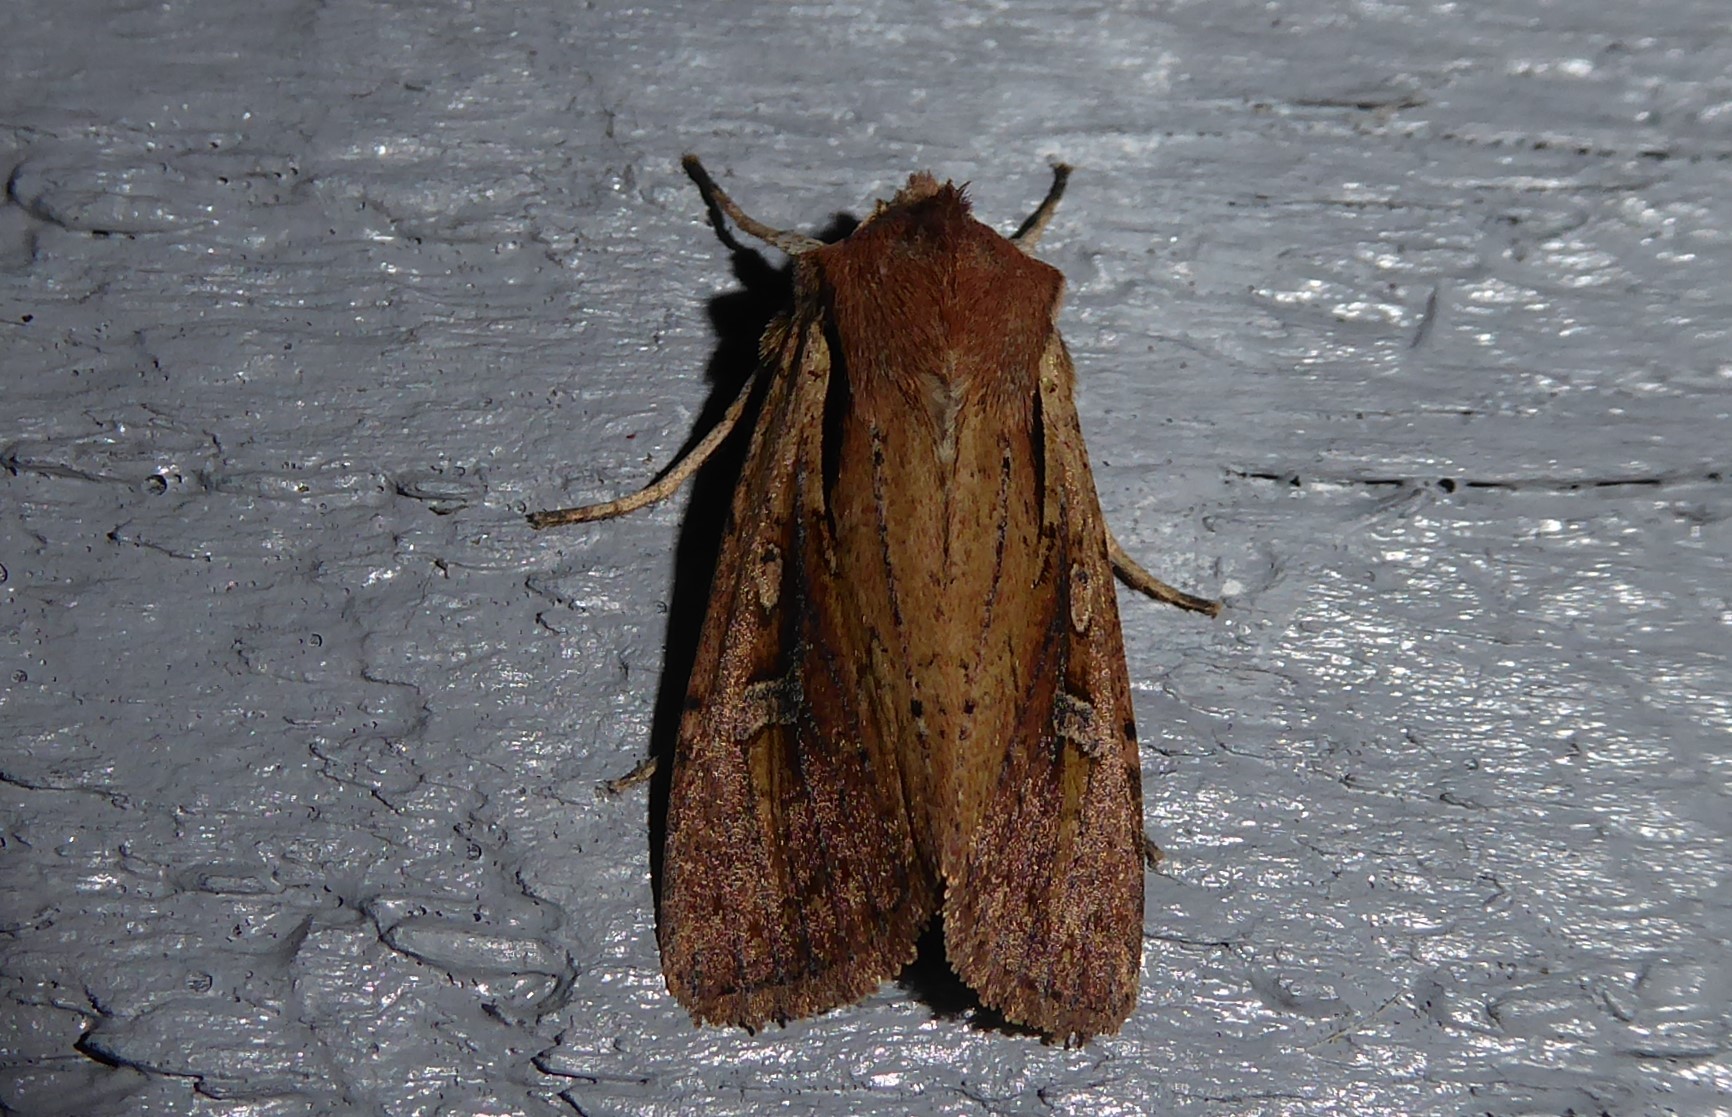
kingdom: Animalia
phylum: Arthropoda
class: Insecta
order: Lepidoptera
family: Noctuidae
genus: Ichneutica
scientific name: Ichneutica atristriga
